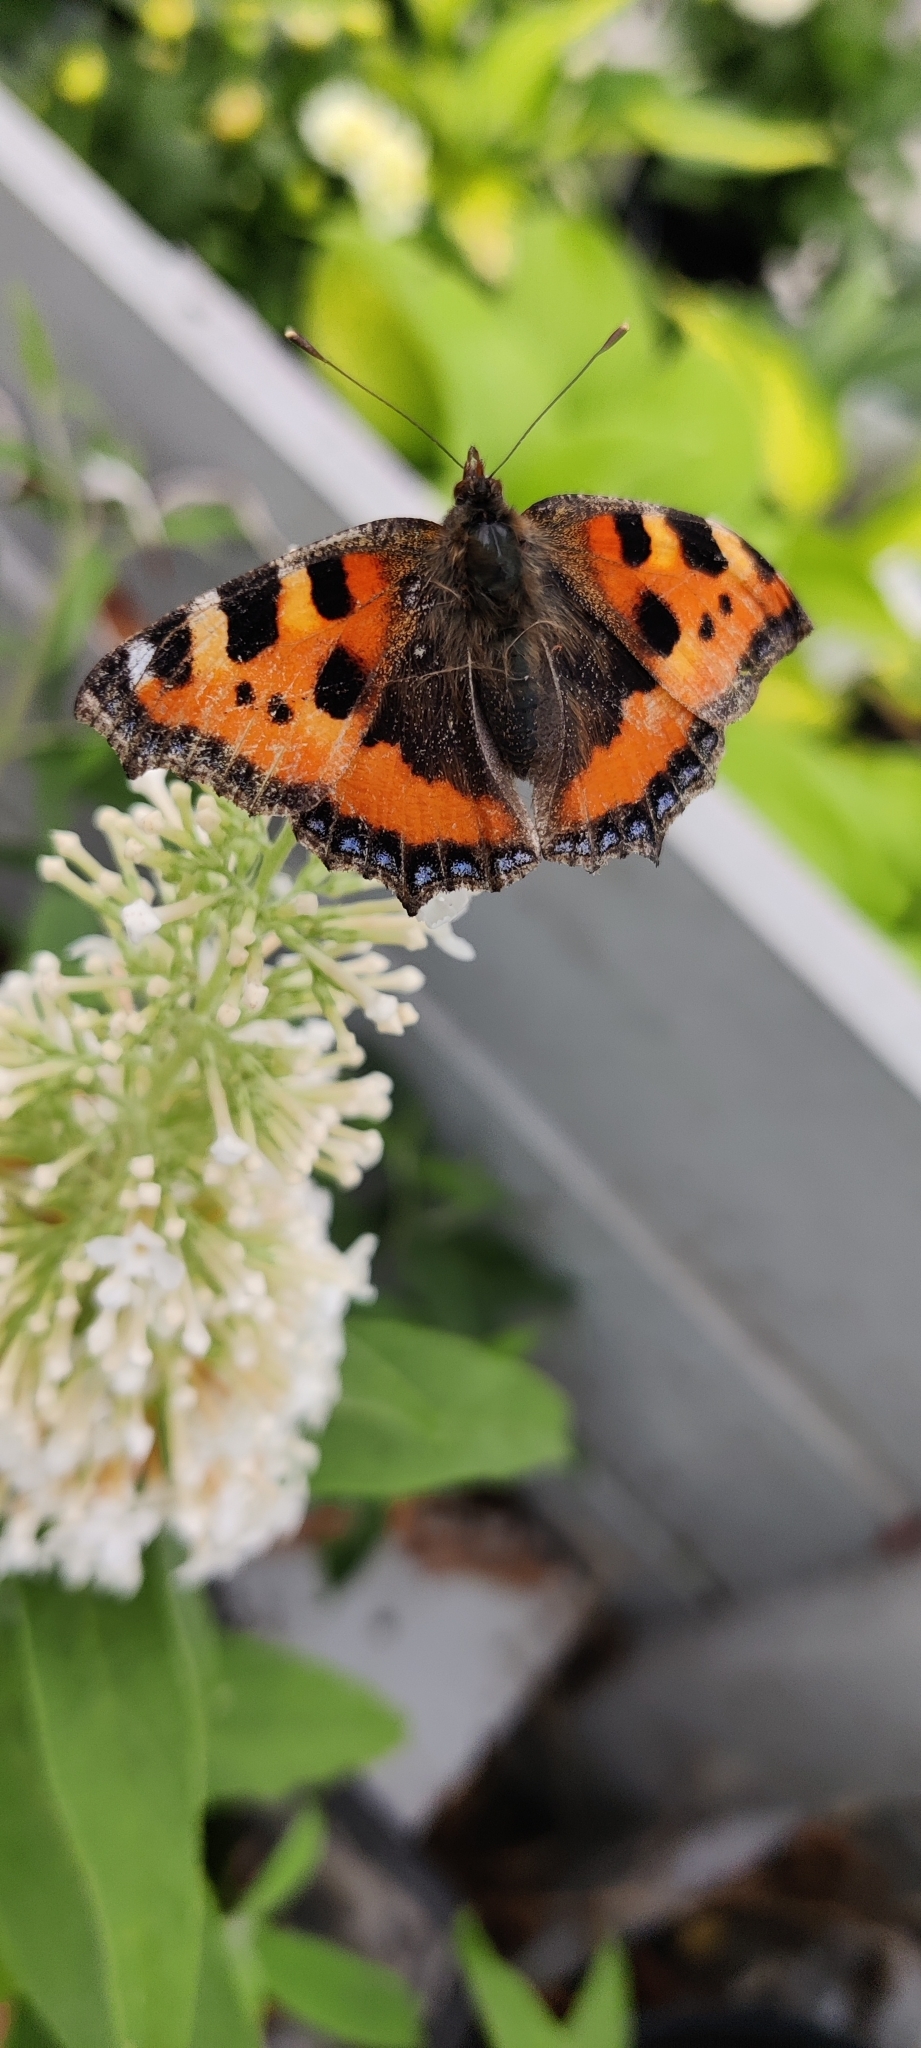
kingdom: Animalia
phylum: Arthropoda
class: Insecta
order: Lepidoptera
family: Nymphalidae
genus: Aglais
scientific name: Aglais urticae
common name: Small tortoiseshell
